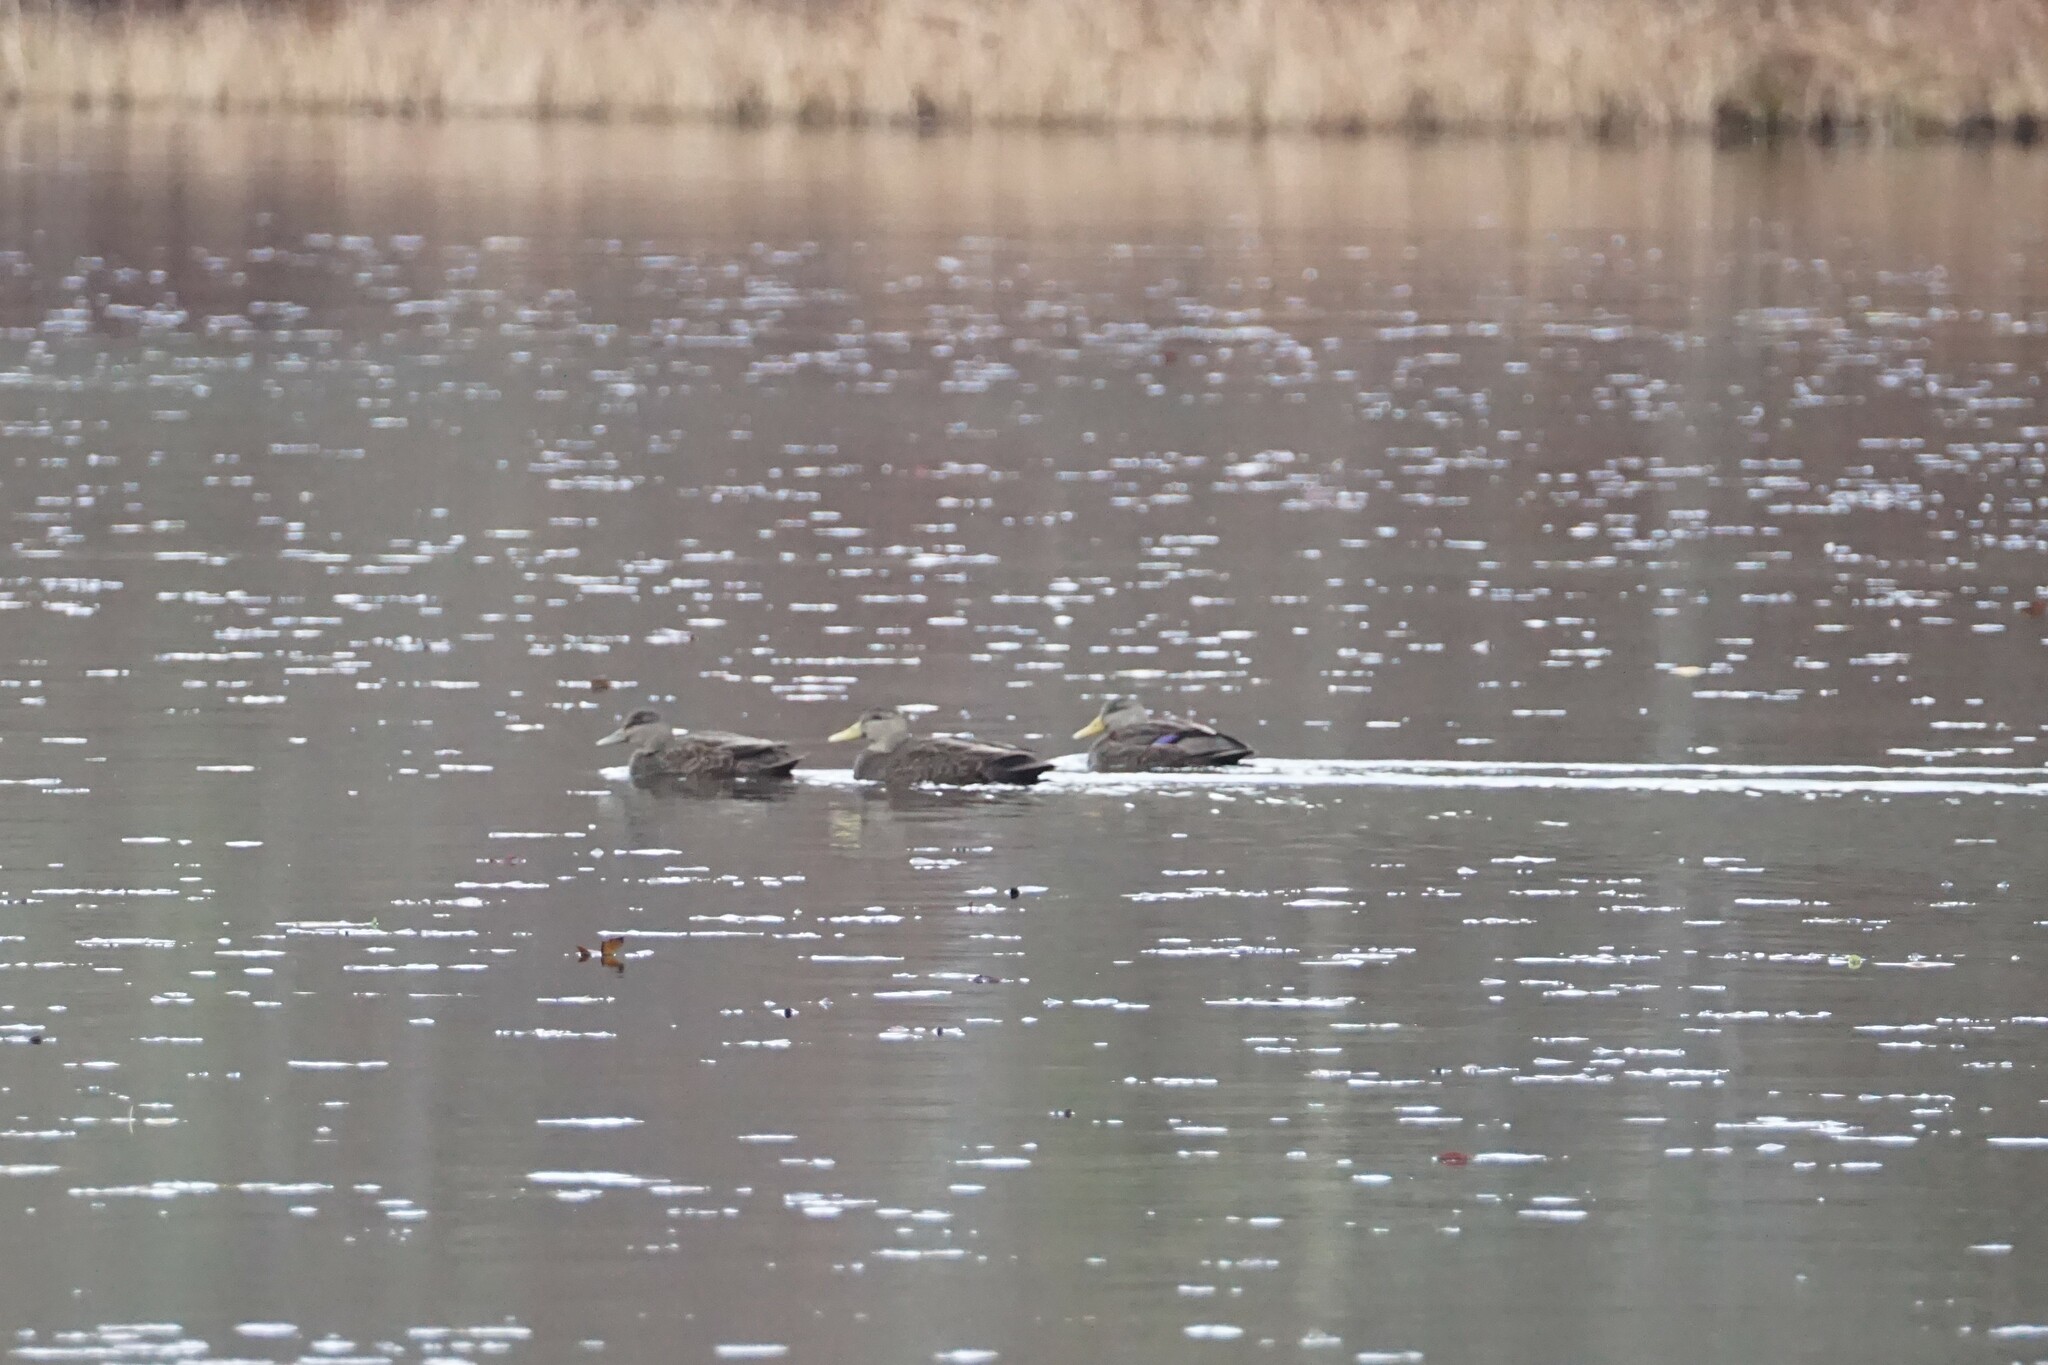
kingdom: Animalia
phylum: Chordata
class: Aves
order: Anseriformes
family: Anatidae
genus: Anas
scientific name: Anas rubripes
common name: American black duck
